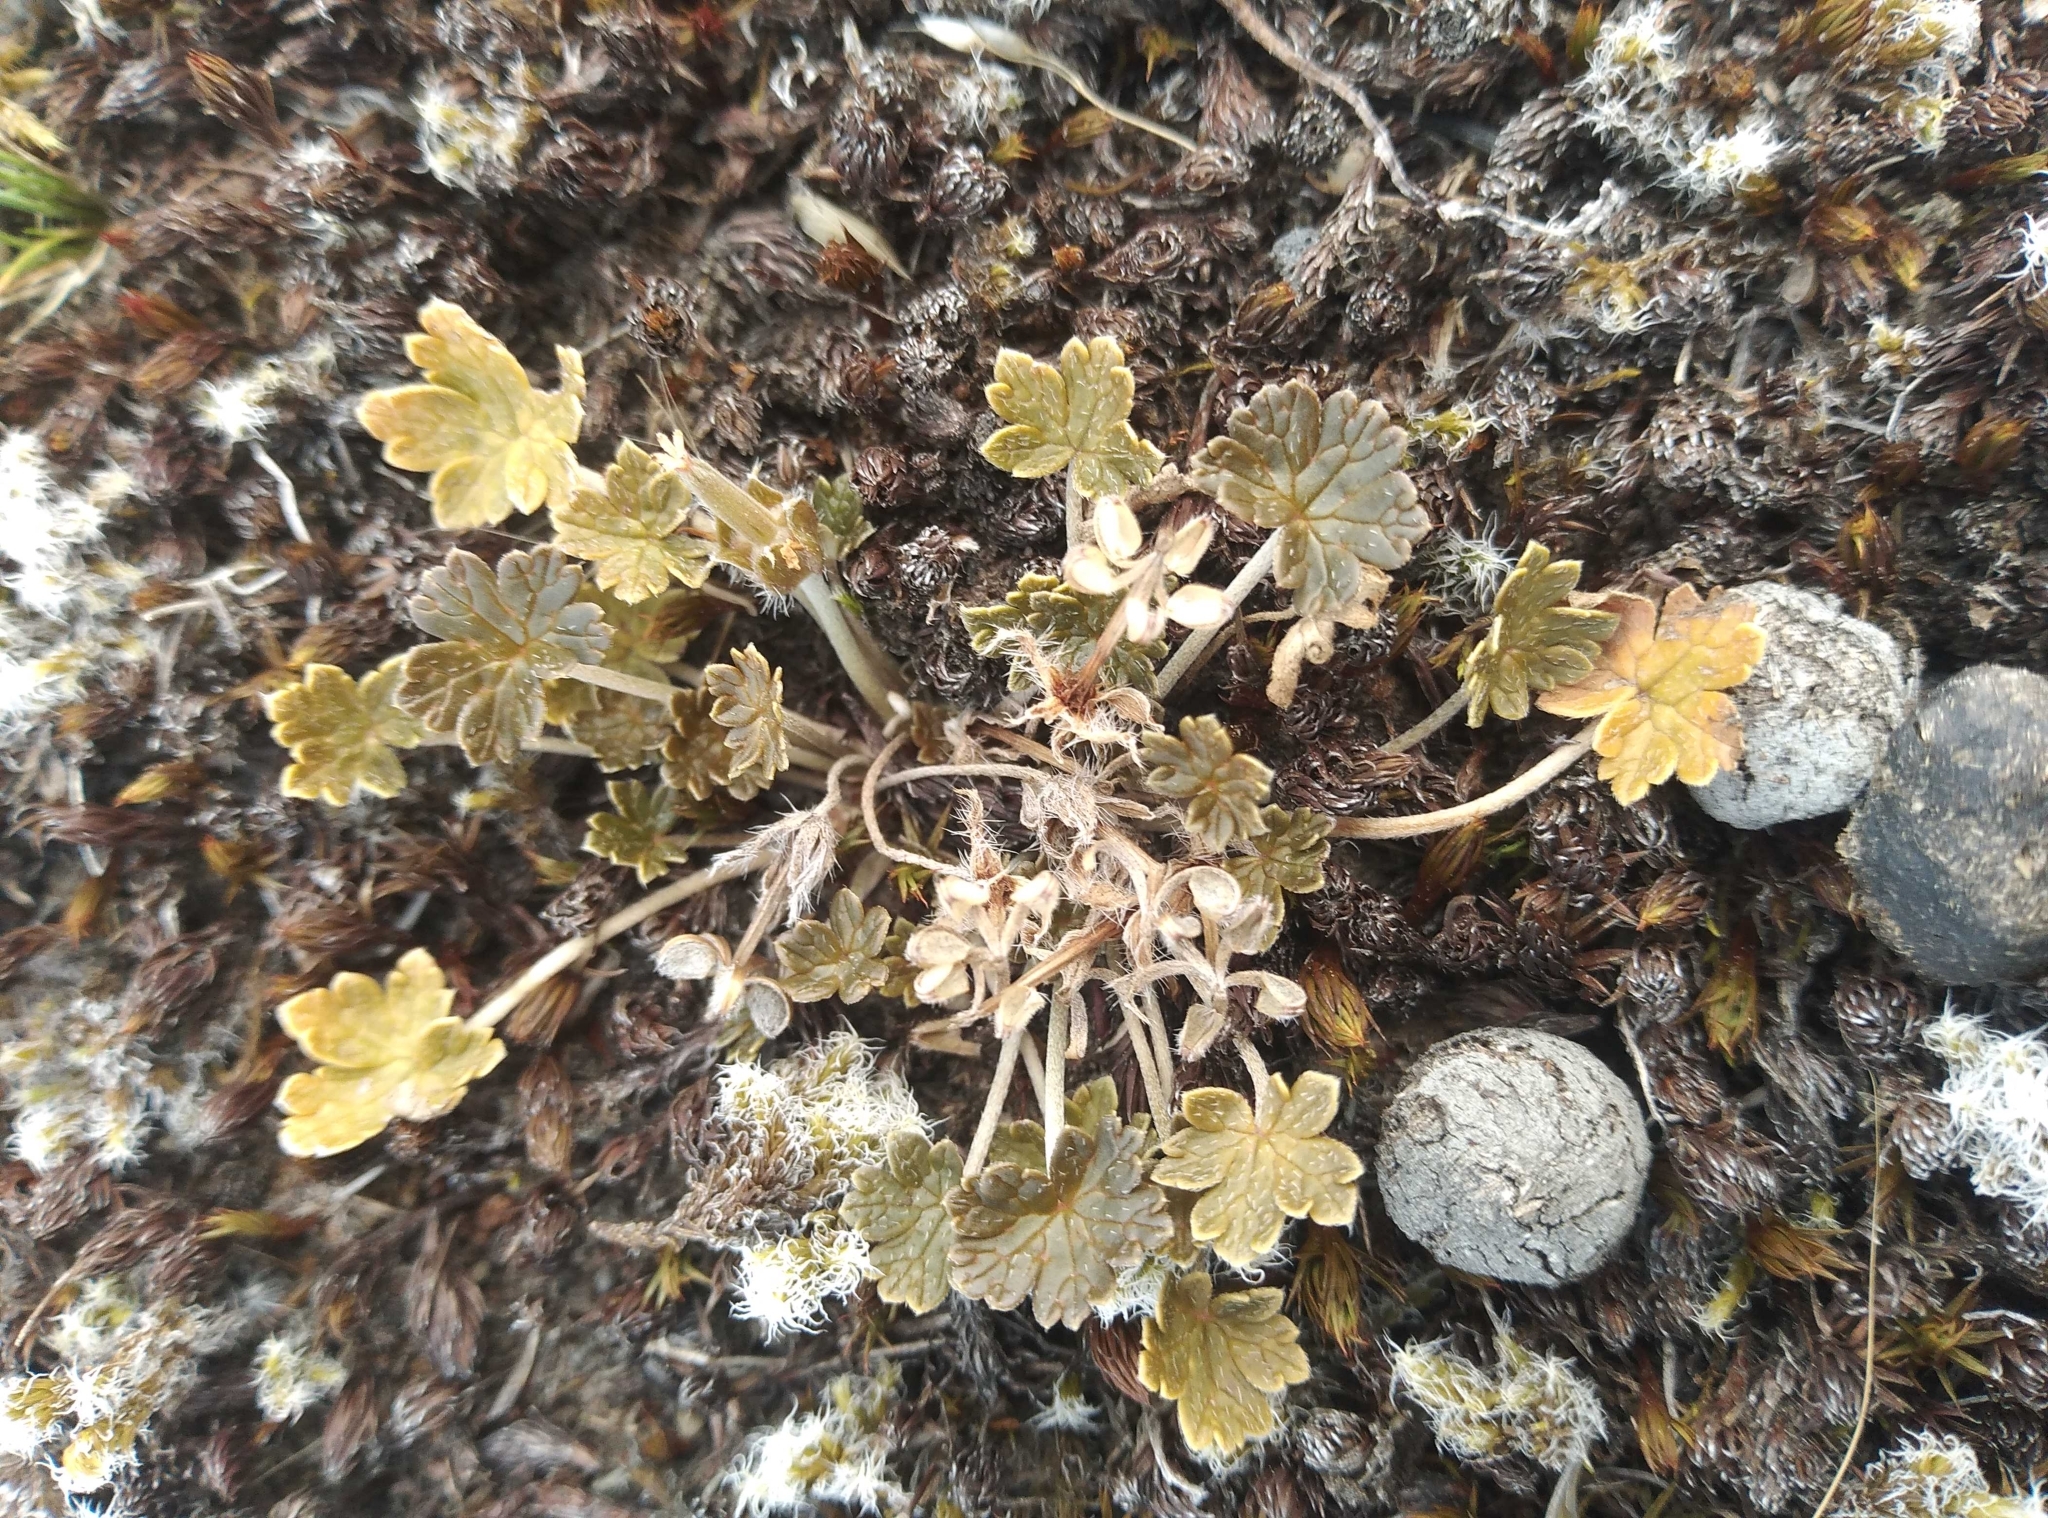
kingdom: Plantae
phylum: Tracheophyta
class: Magnoliopsida
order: Geraniales
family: Geraniaceae
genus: Geranium
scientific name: Geranium brevicaule
